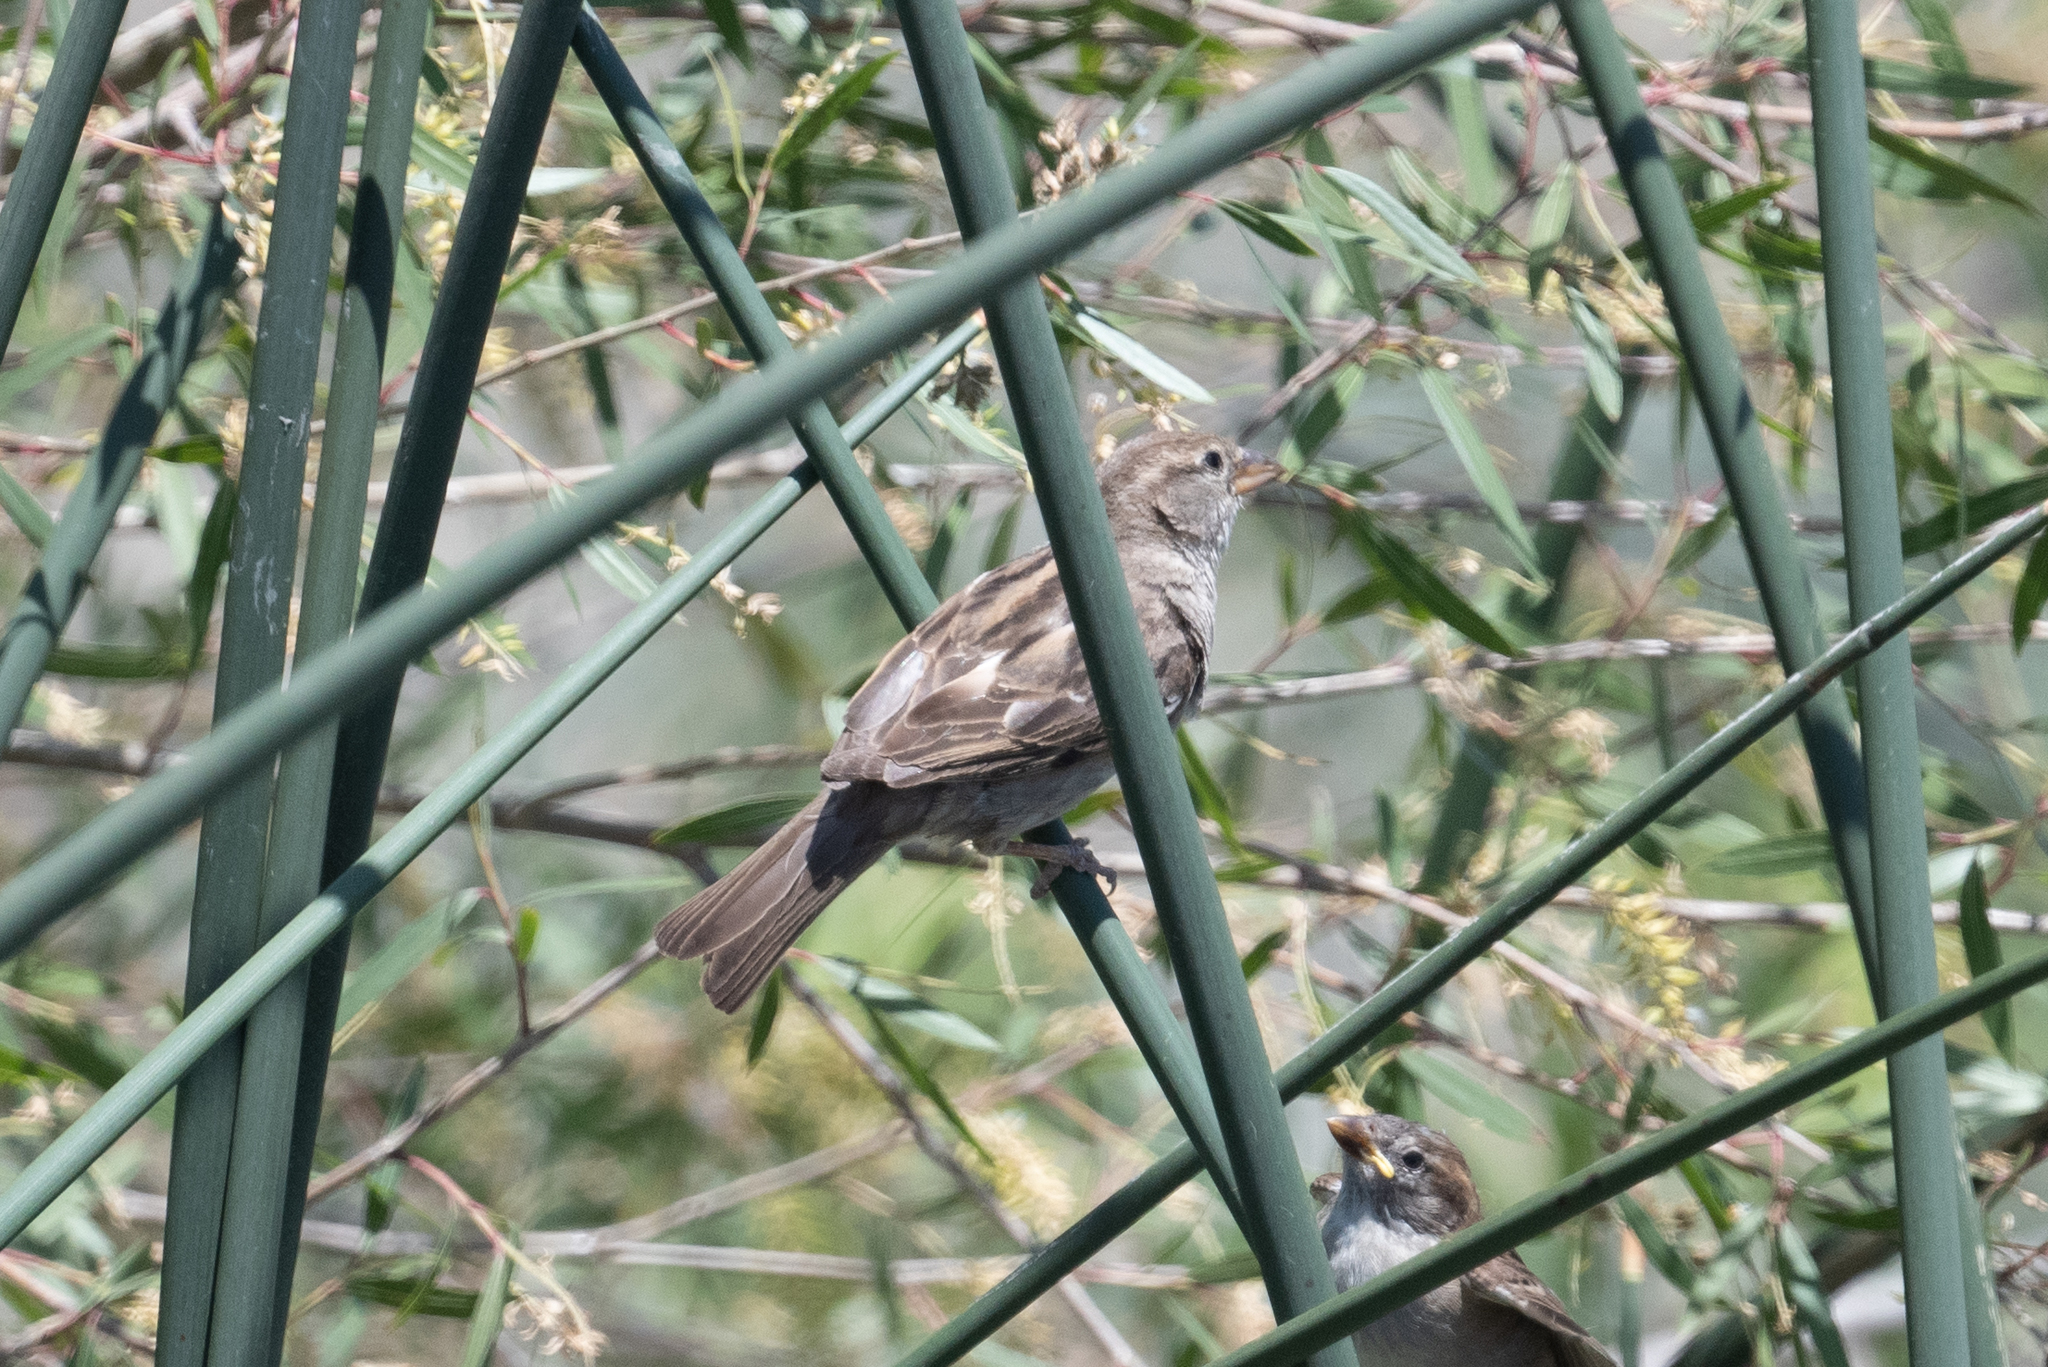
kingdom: Animalia
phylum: Chordata
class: Aves
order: Passeriformes
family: Passeridae
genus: Passer
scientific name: Passer domesticus
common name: House sparrow
